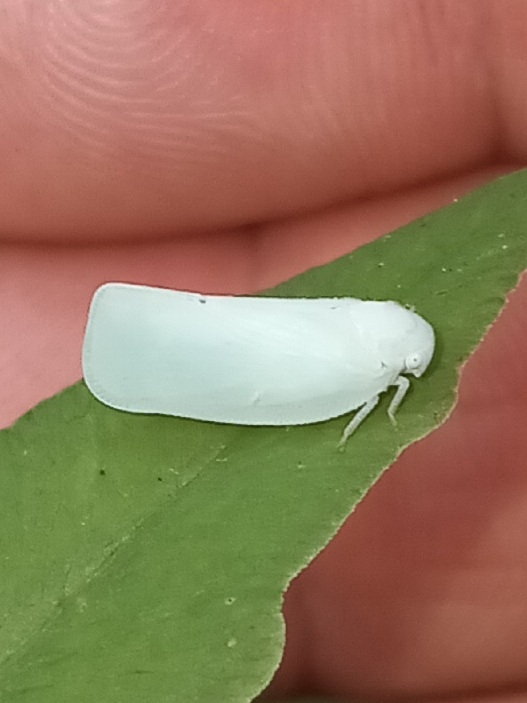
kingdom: Animalia
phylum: Arthropoda
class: Insecta
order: Hemiptera
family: Flatidae
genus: Flatormenis
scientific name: Flatormenis proxima
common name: Northern flatid planthopper
